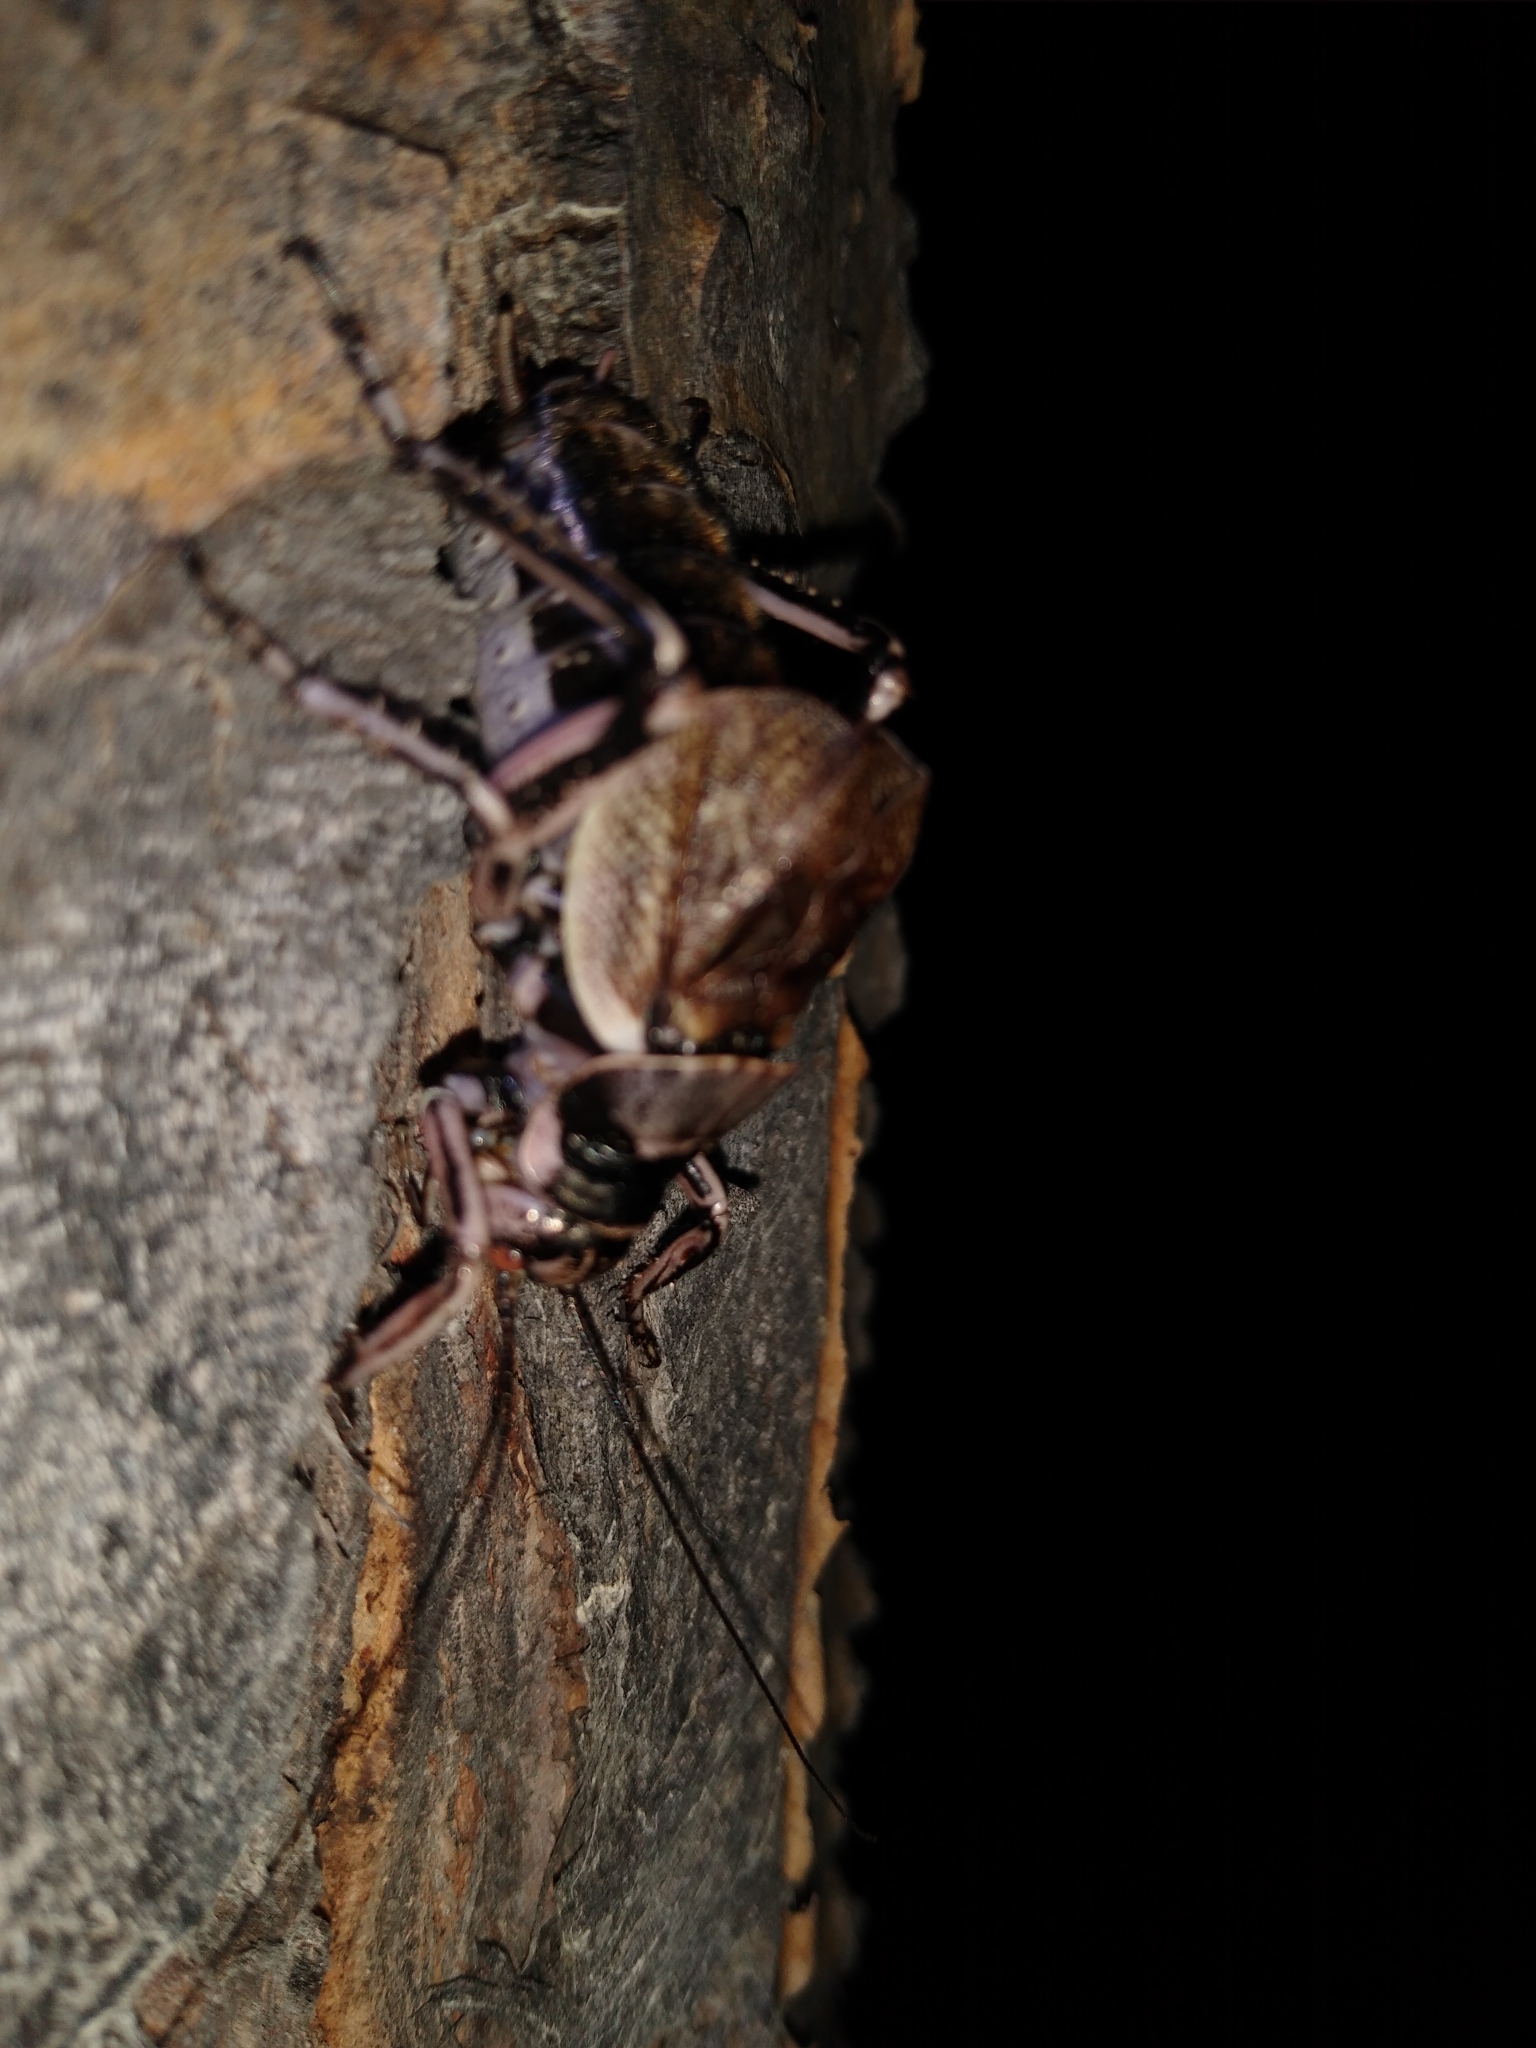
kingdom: Animalia
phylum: Arthropoda
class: Insecta
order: Orthoptera
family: Prophalangopsidae
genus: Cyphoderris
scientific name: Cyphoderris monstrosa
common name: Great grig
